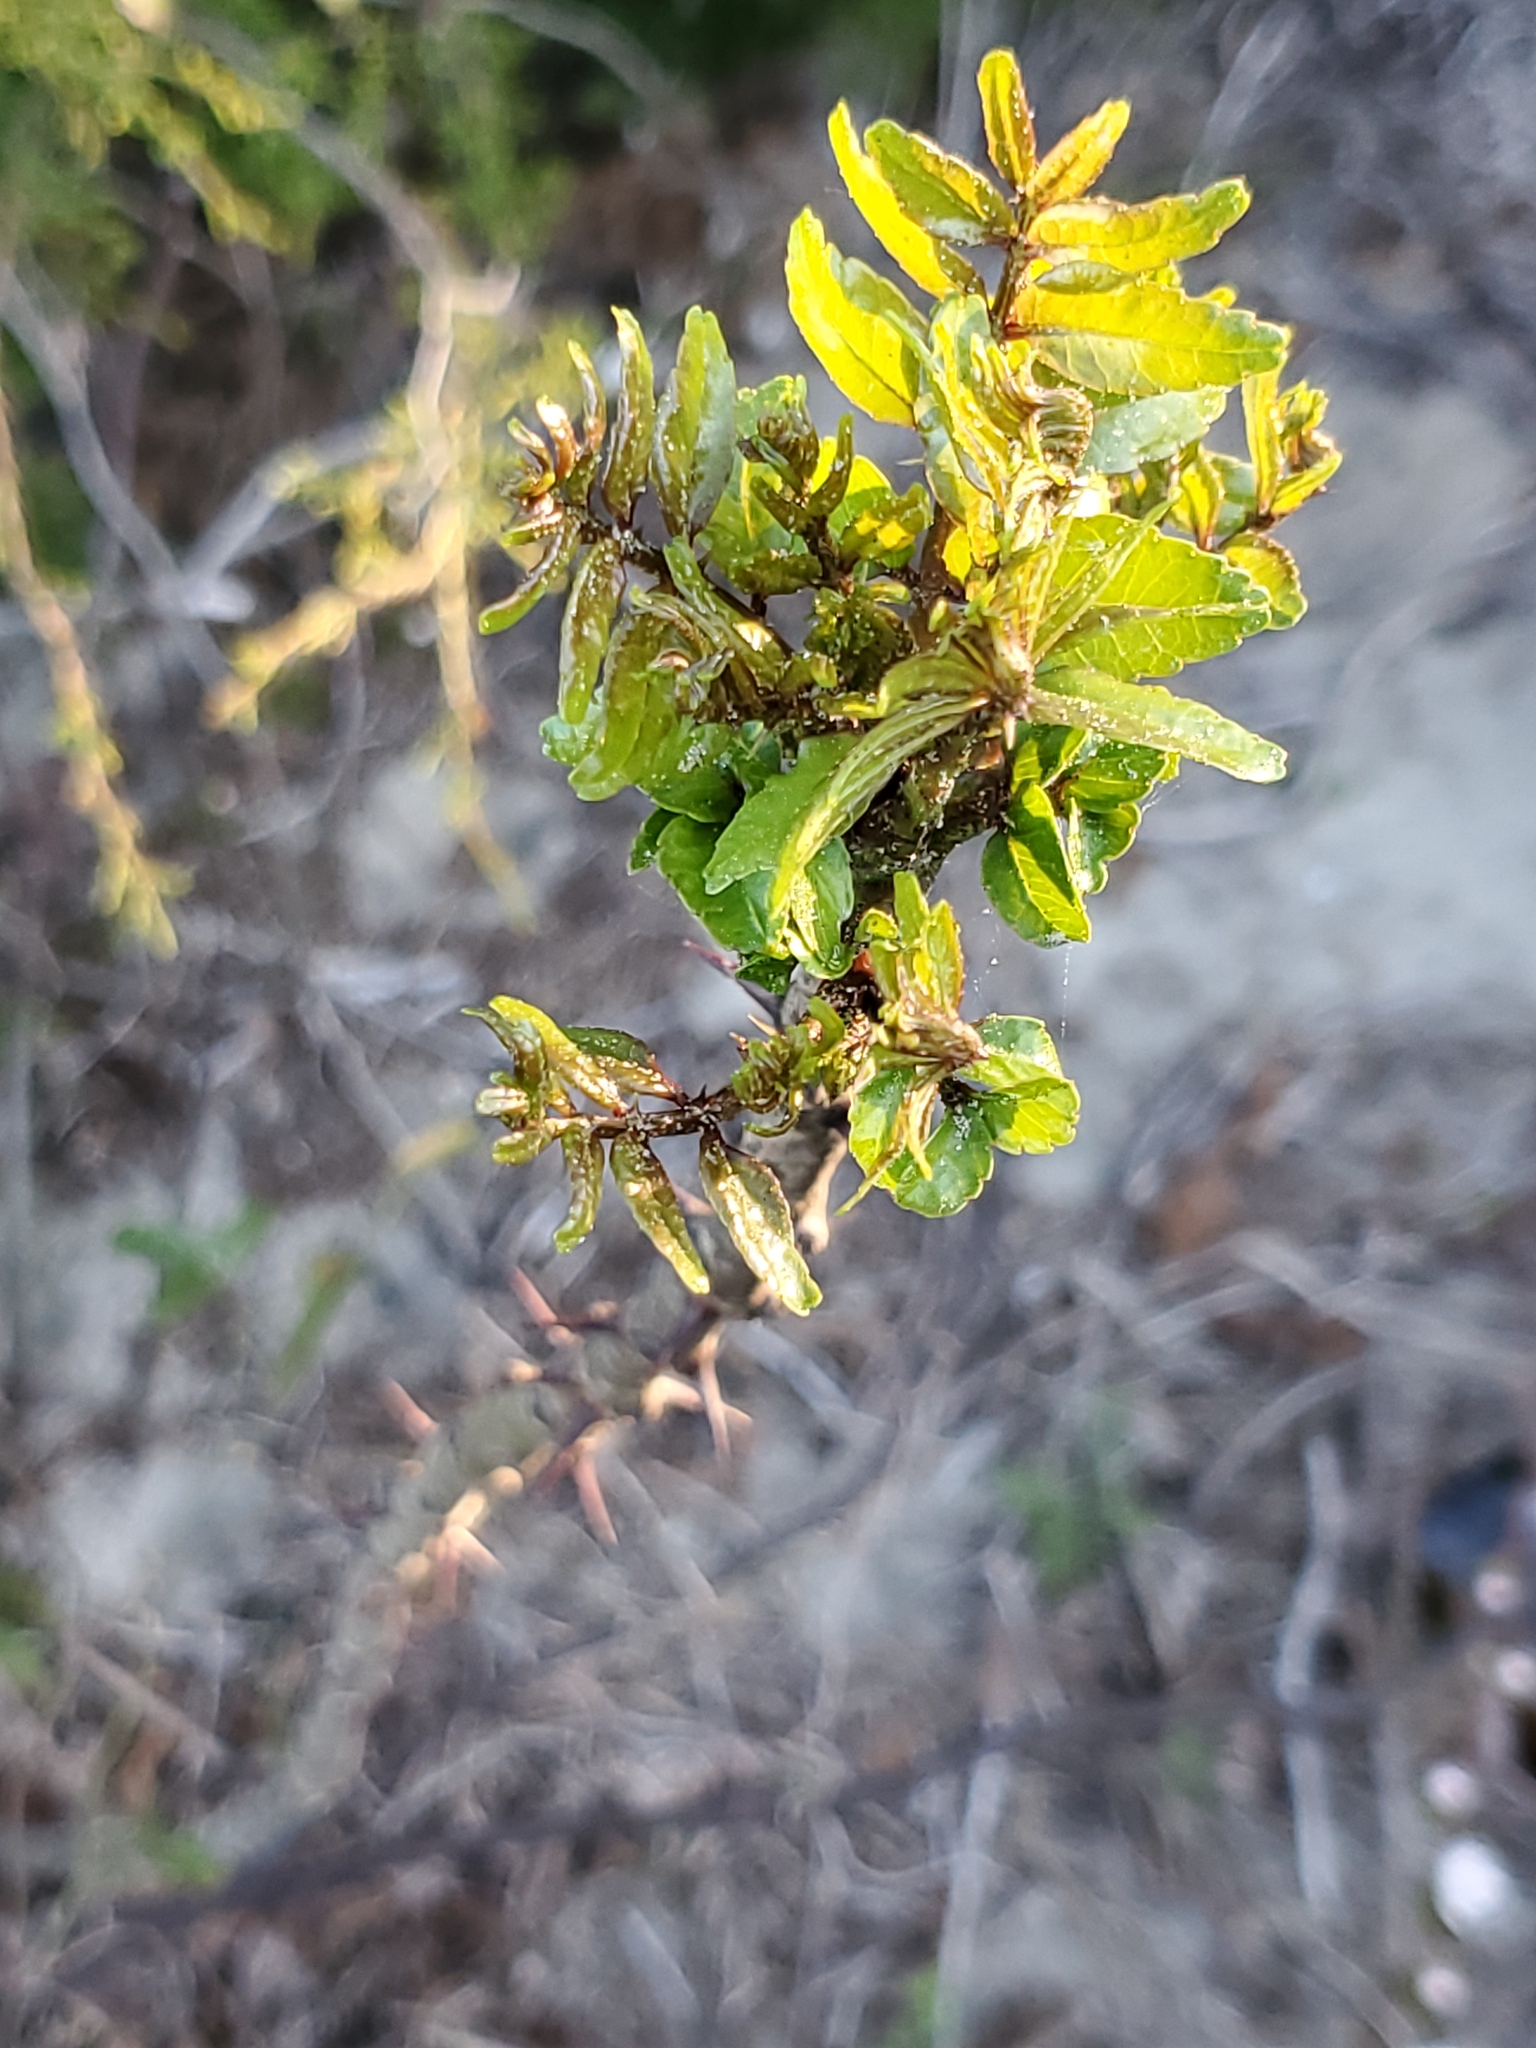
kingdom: Plantae
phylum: Tracheophyta
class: Magnoliopsida
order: Sapindales
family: Rutaceae
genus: Zanthoxylum
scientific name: Zanthoxylum clava-herculis
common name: Hercules'-club
